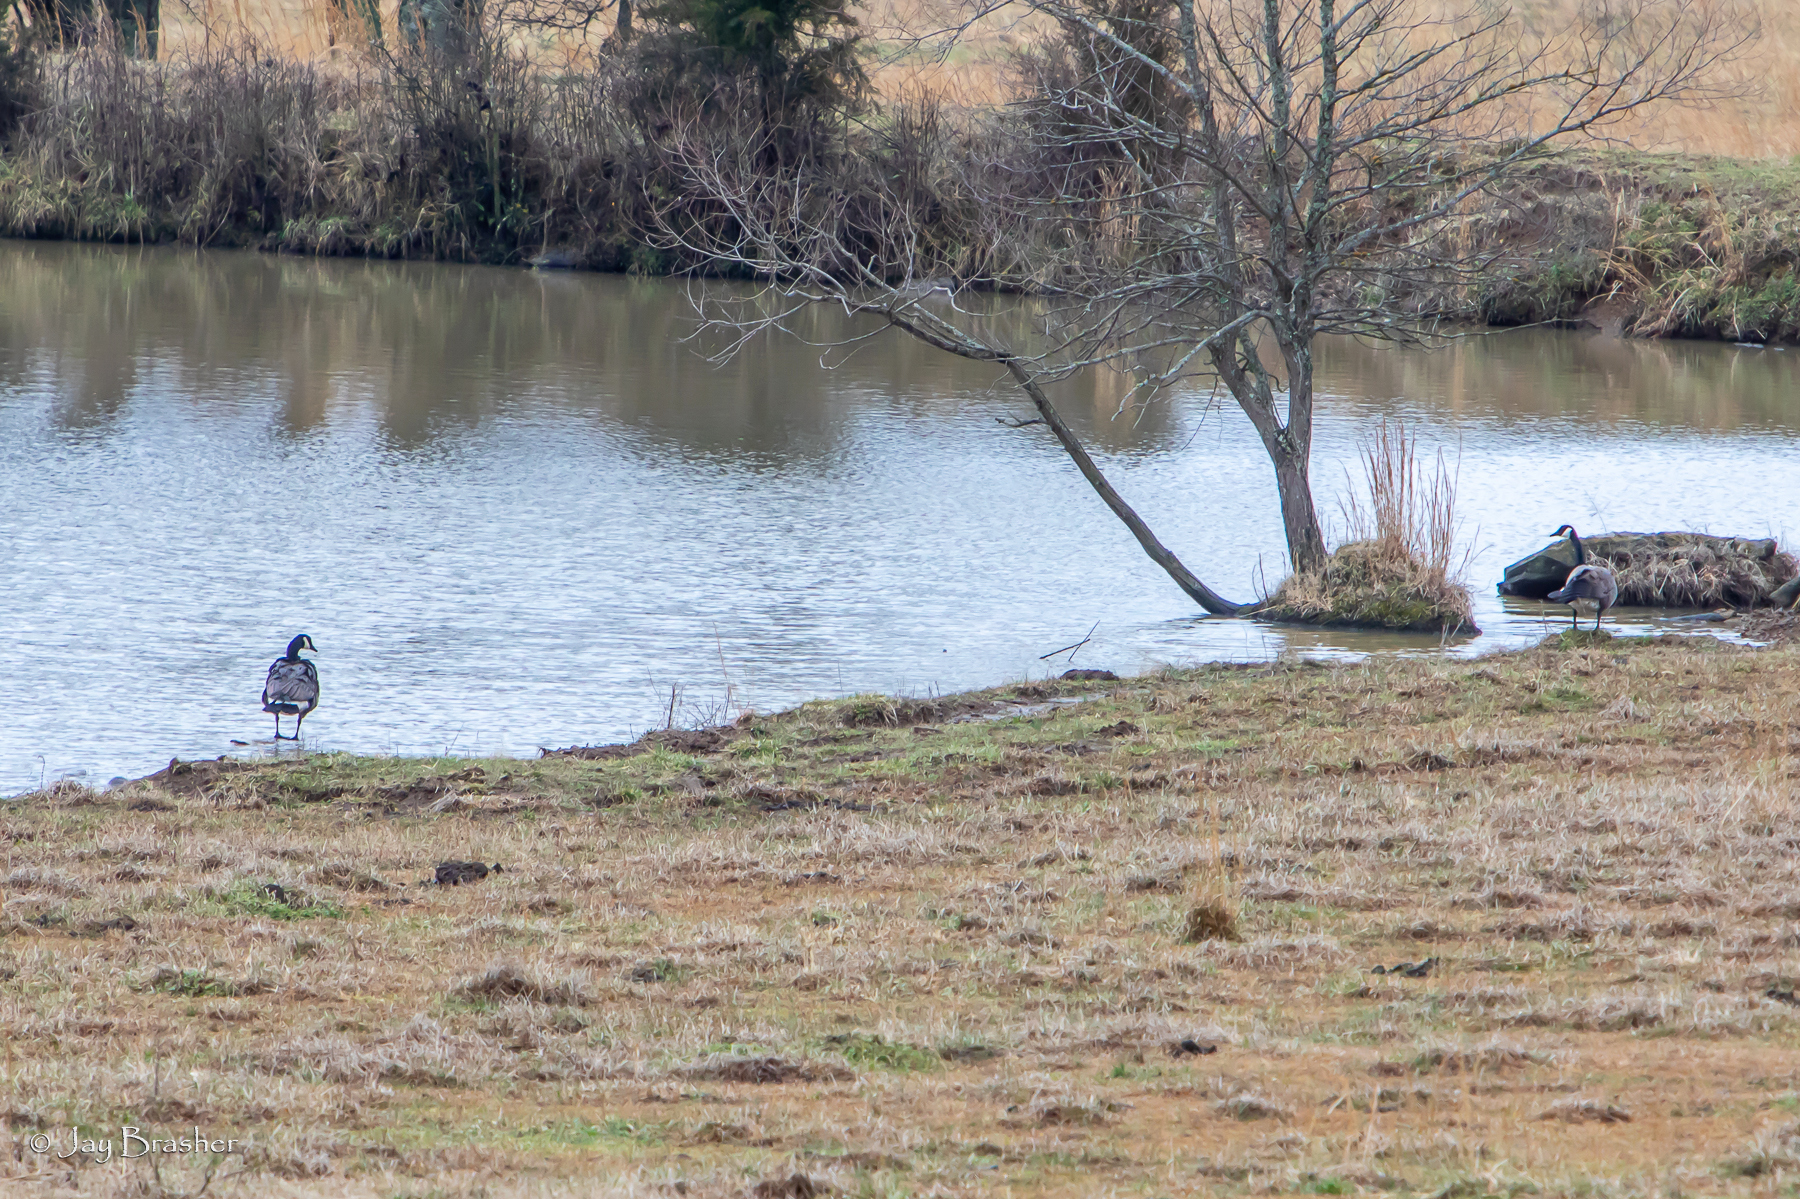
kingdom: Animalia
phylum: Chordata
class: Aves
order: Anseriformes
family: Anatidae
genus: Branta
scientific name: Branta canadensis
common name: Canada goose
